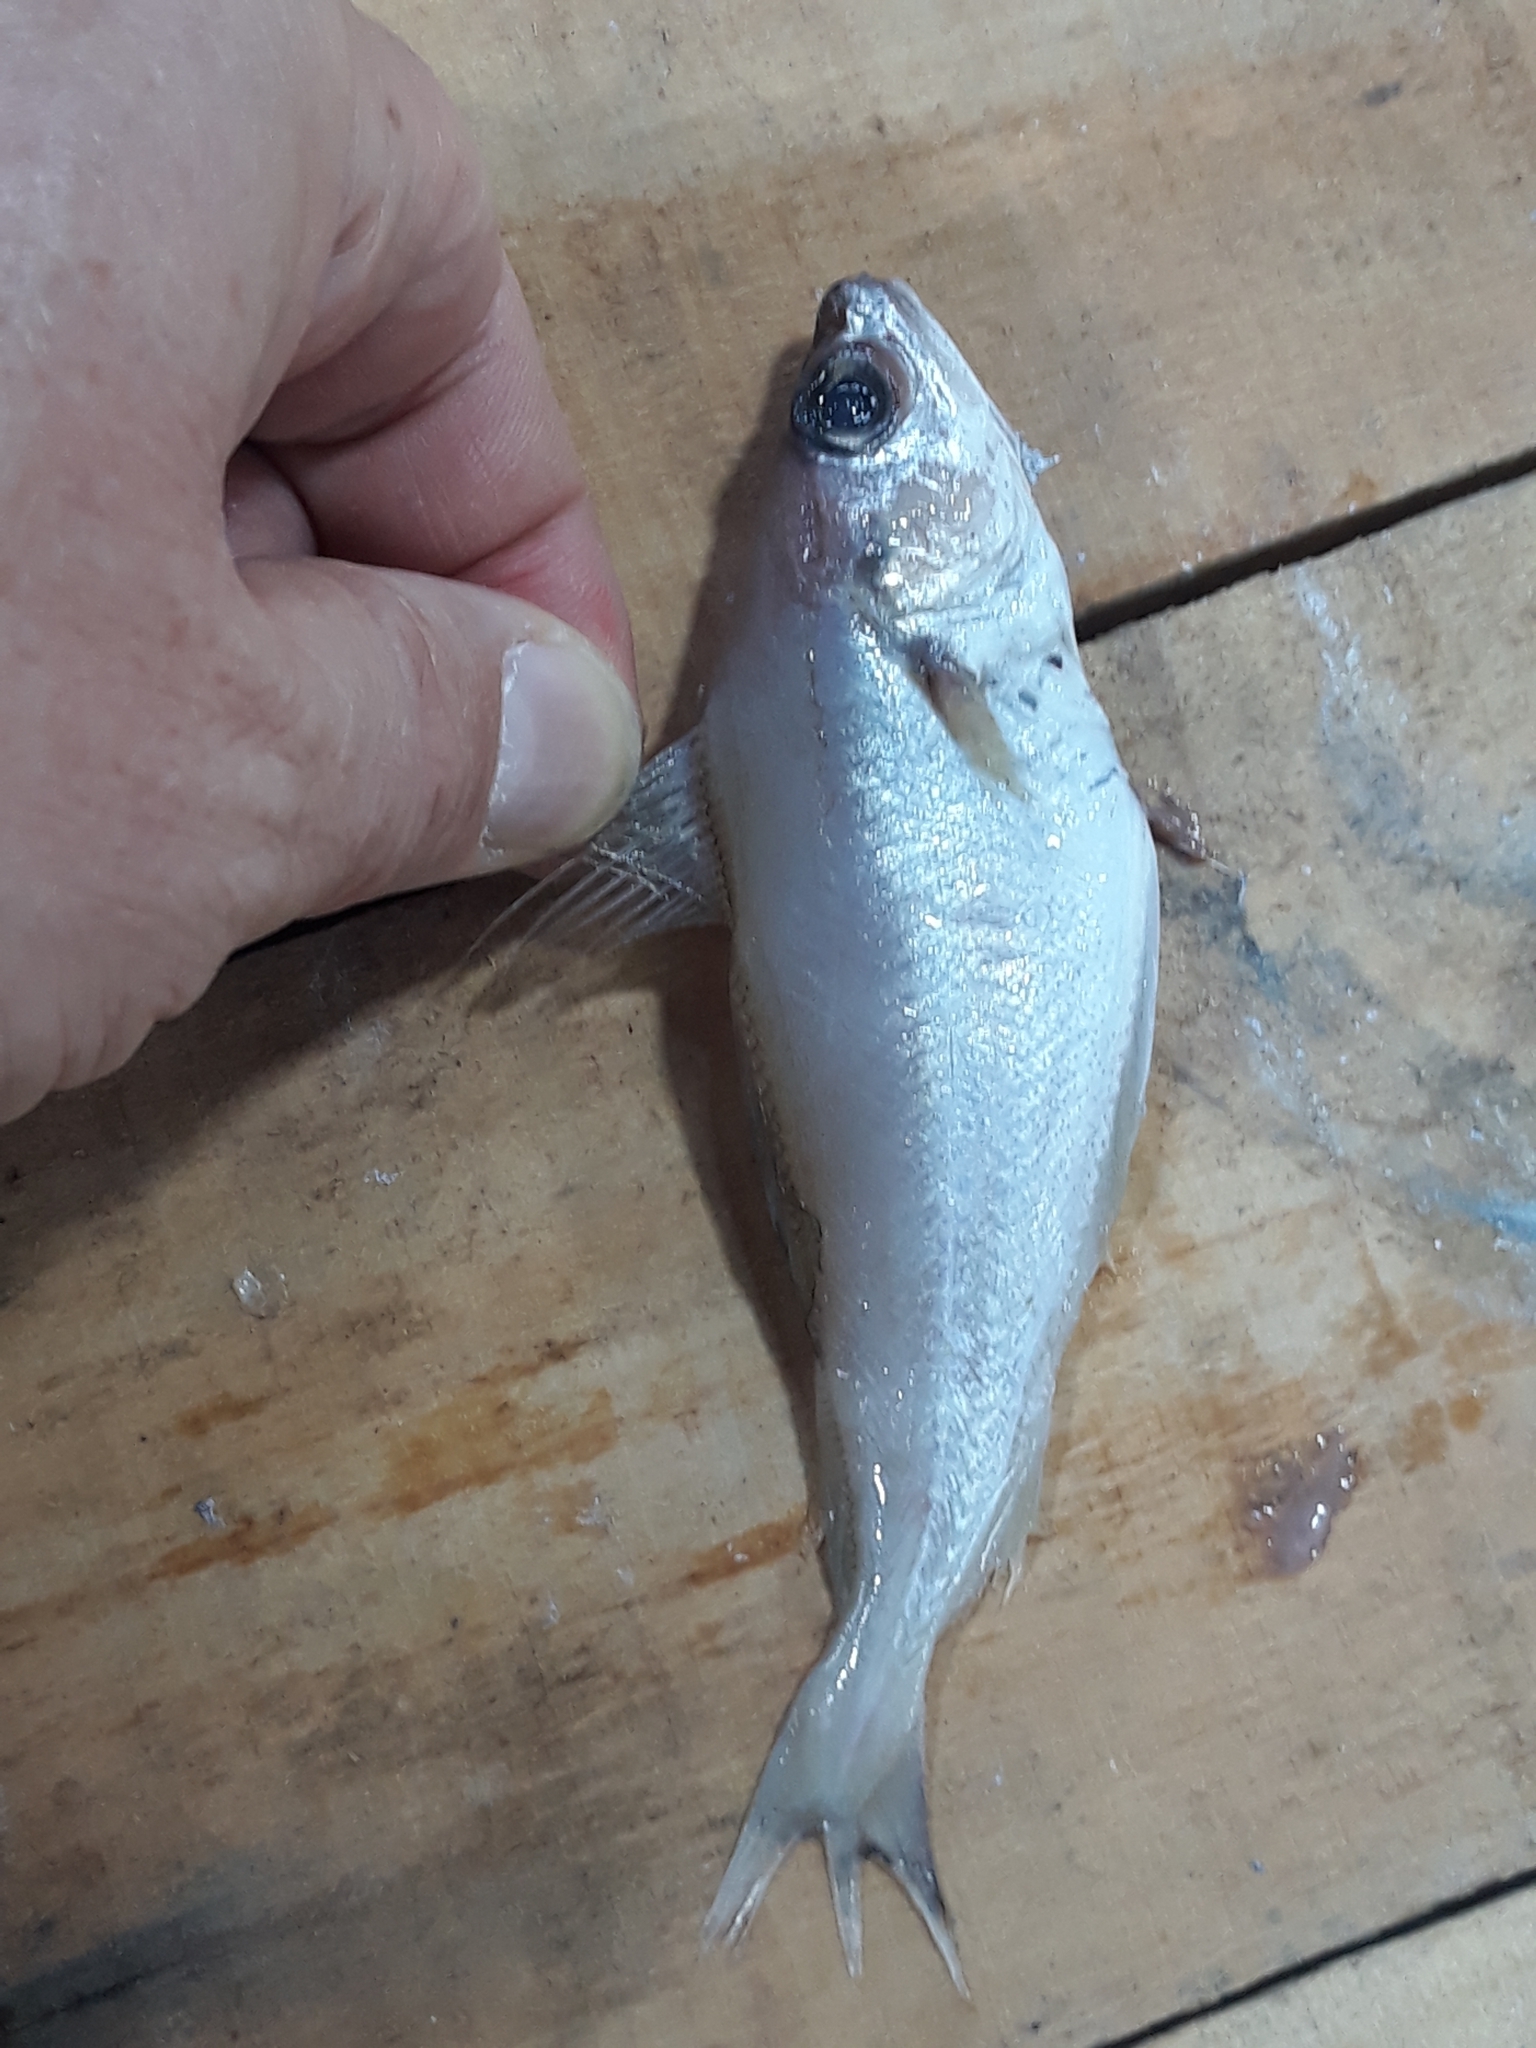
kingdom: Animalia
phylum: Chordata
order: Gadiformes
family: Gadidae
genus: Trisopterus
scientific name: Trisopterus capelanus
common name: Capelin
